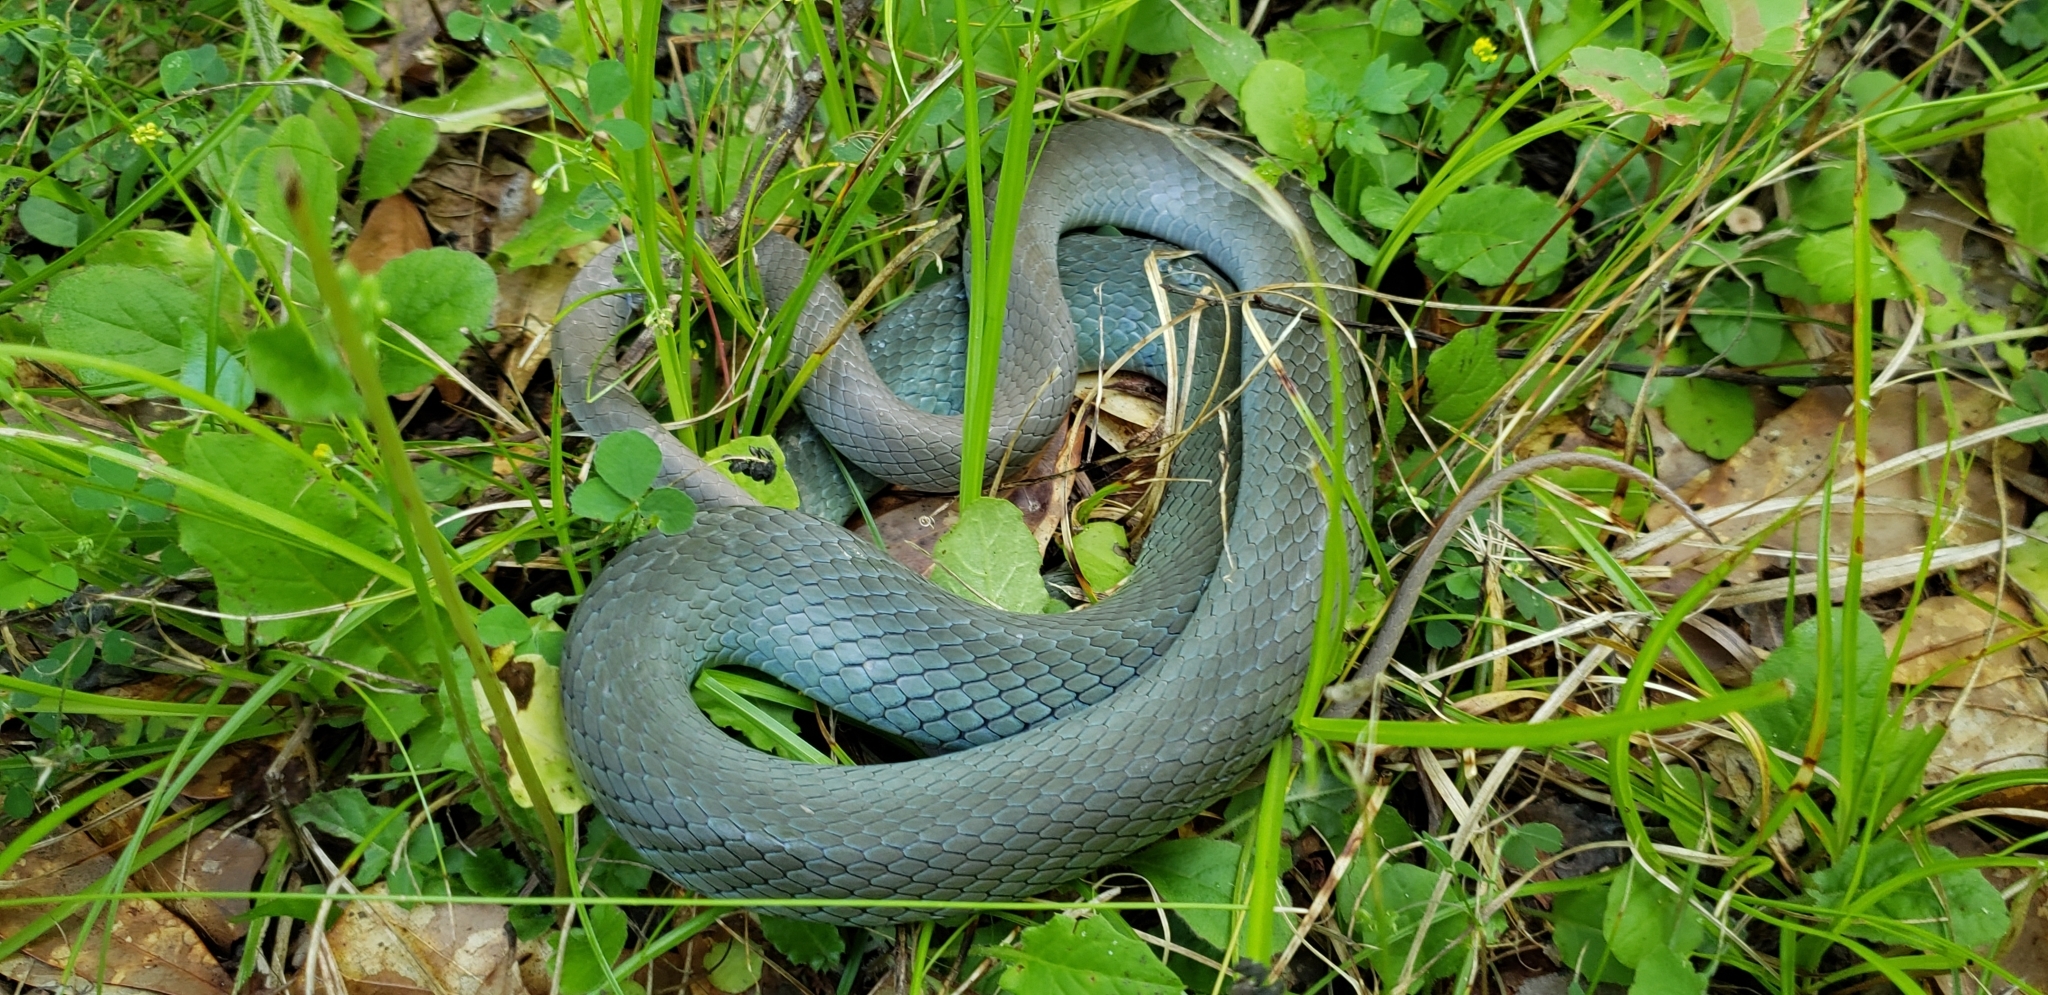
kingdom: Animalia
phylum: Chordata
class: Squamata
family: Colubridae
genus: Coluber
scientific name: Coluber constrictor
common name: Eastern racer
